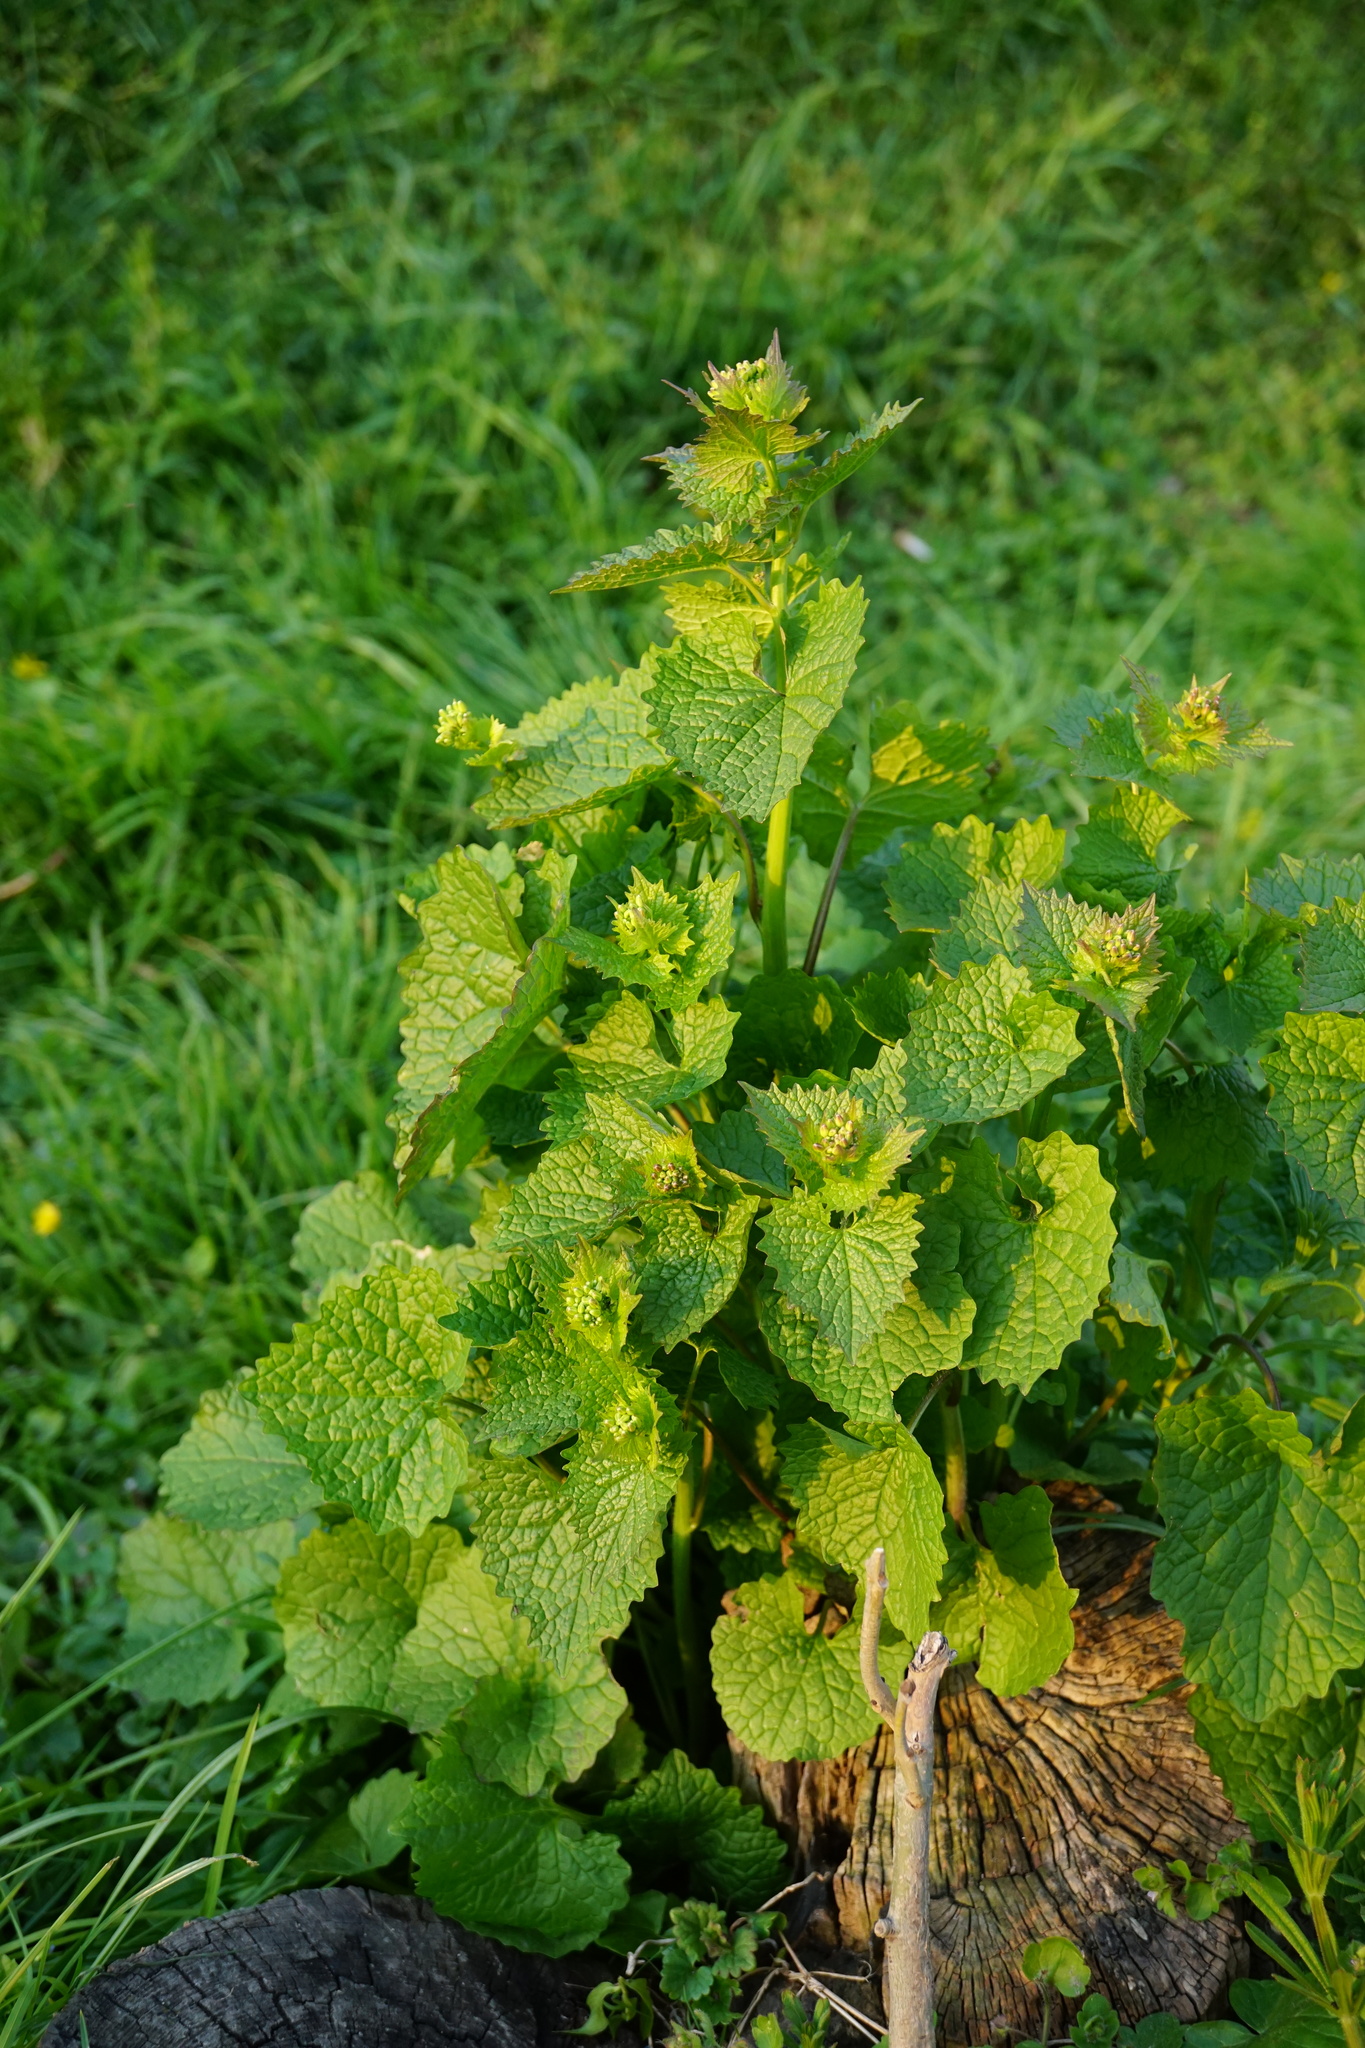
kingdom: Plantae
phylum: Tracheophyta
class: Magnoliopsida
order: Brassicales
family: Brassicaceae
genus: Alliaria
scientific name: Alliaria petiolata
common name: Garlic mustard
